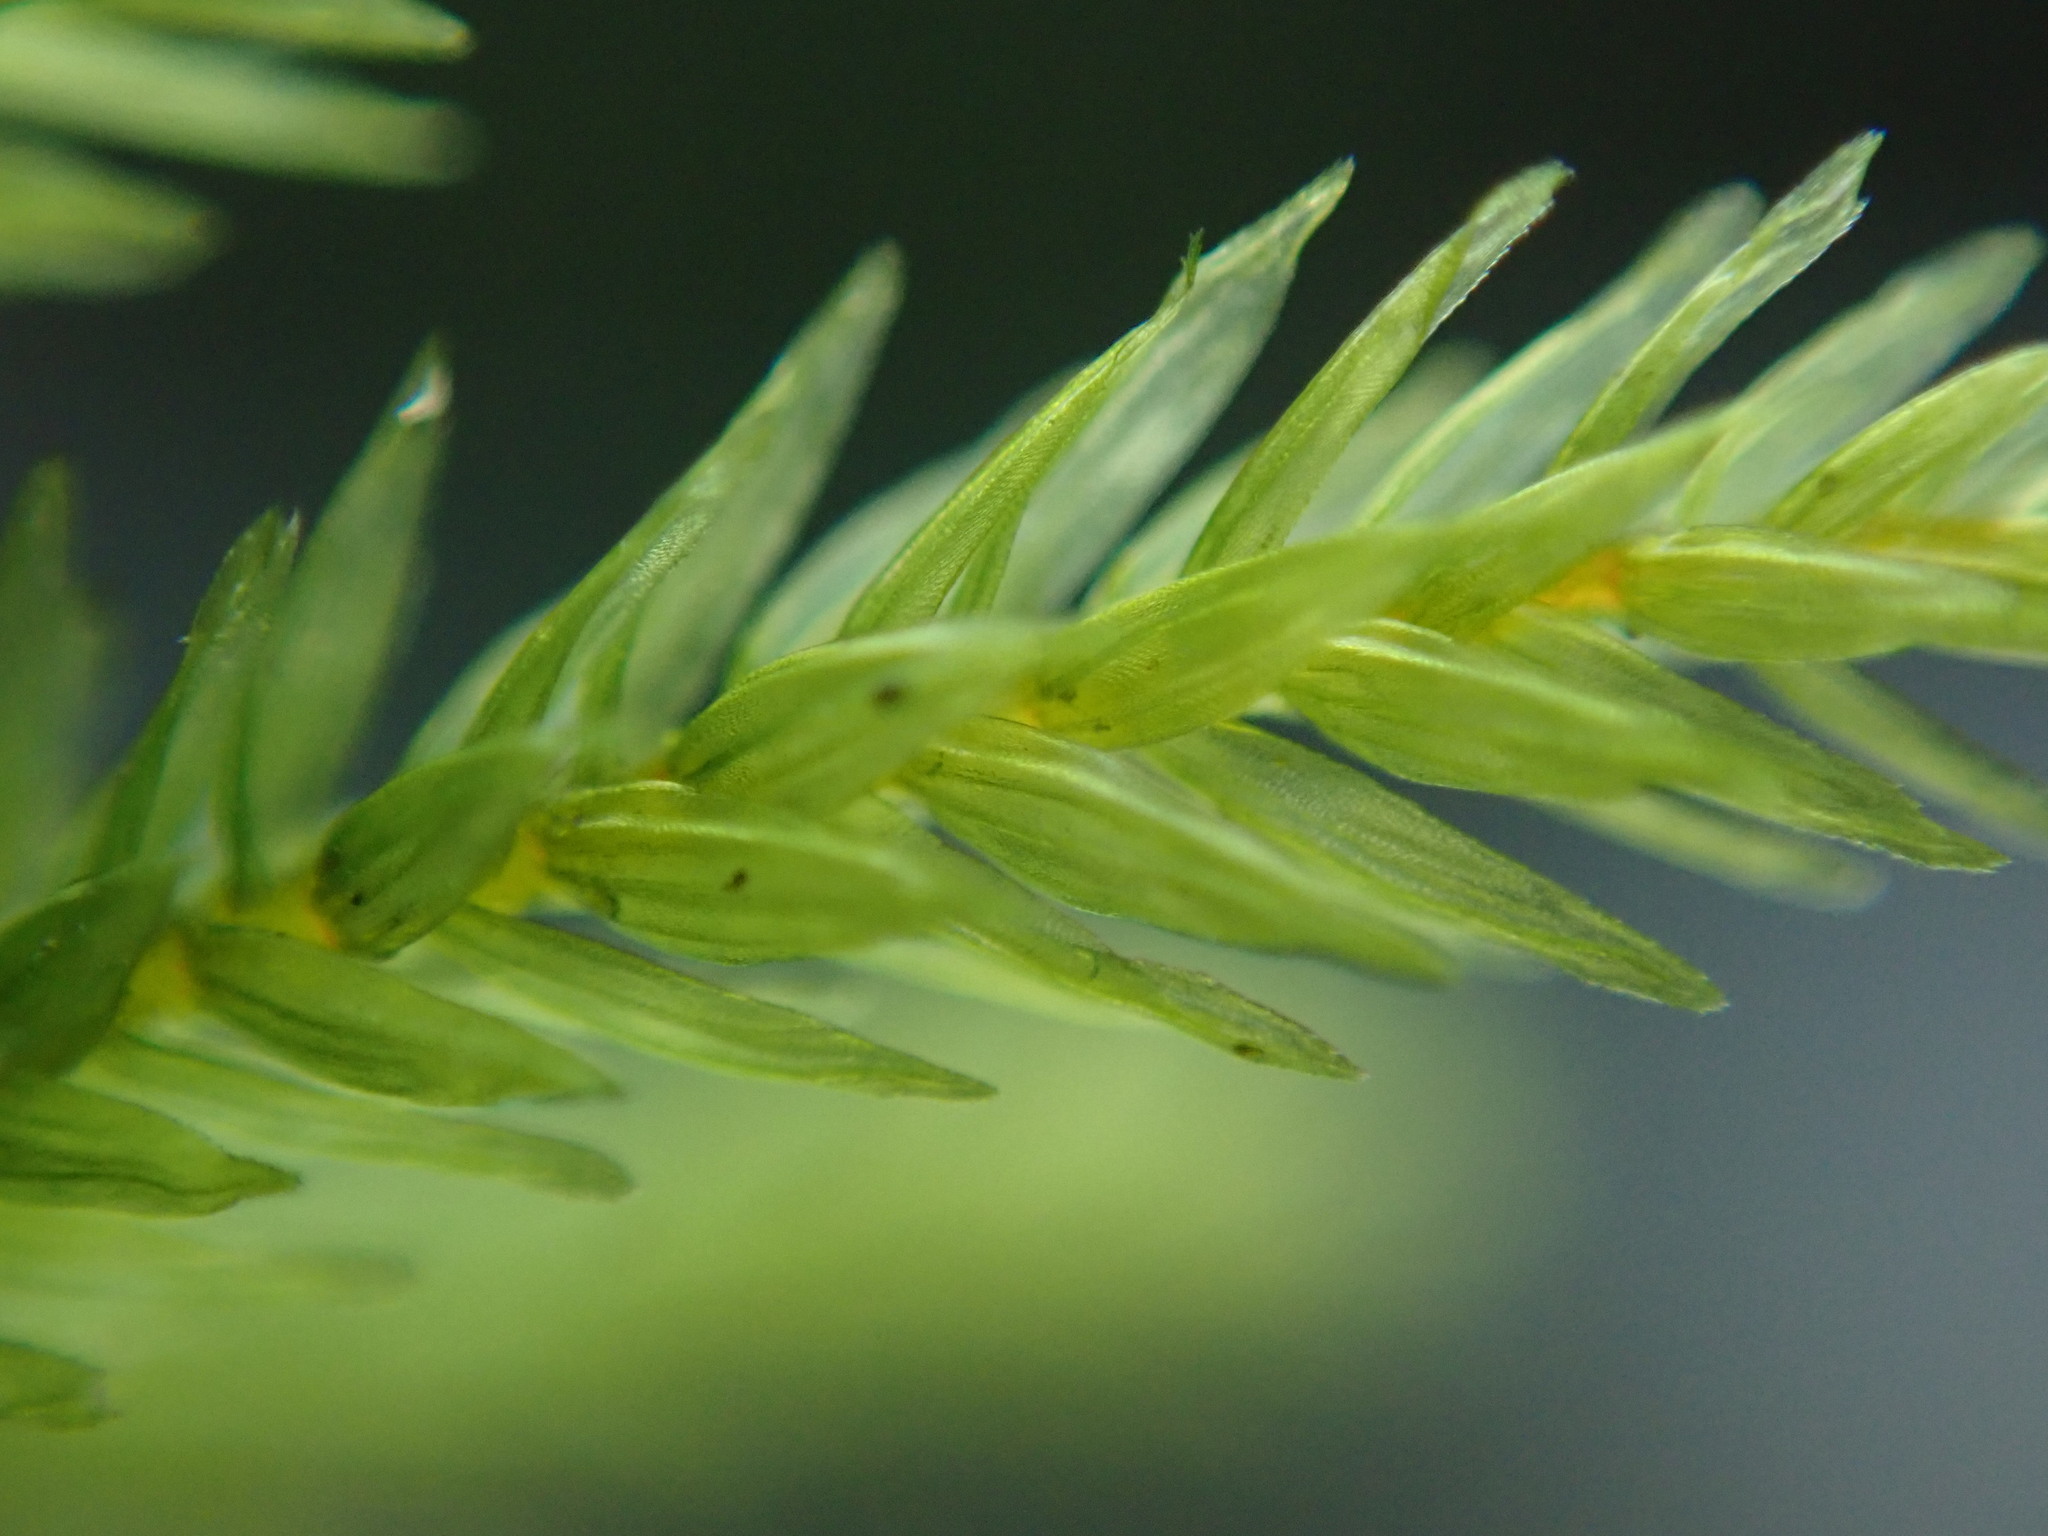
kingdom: Plantae
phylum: Bryophyta
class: Bryopsida
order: Hypnales
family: Climaciaceae
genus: Climacium
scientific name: Climacium dendroides
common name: Northern tree moss
